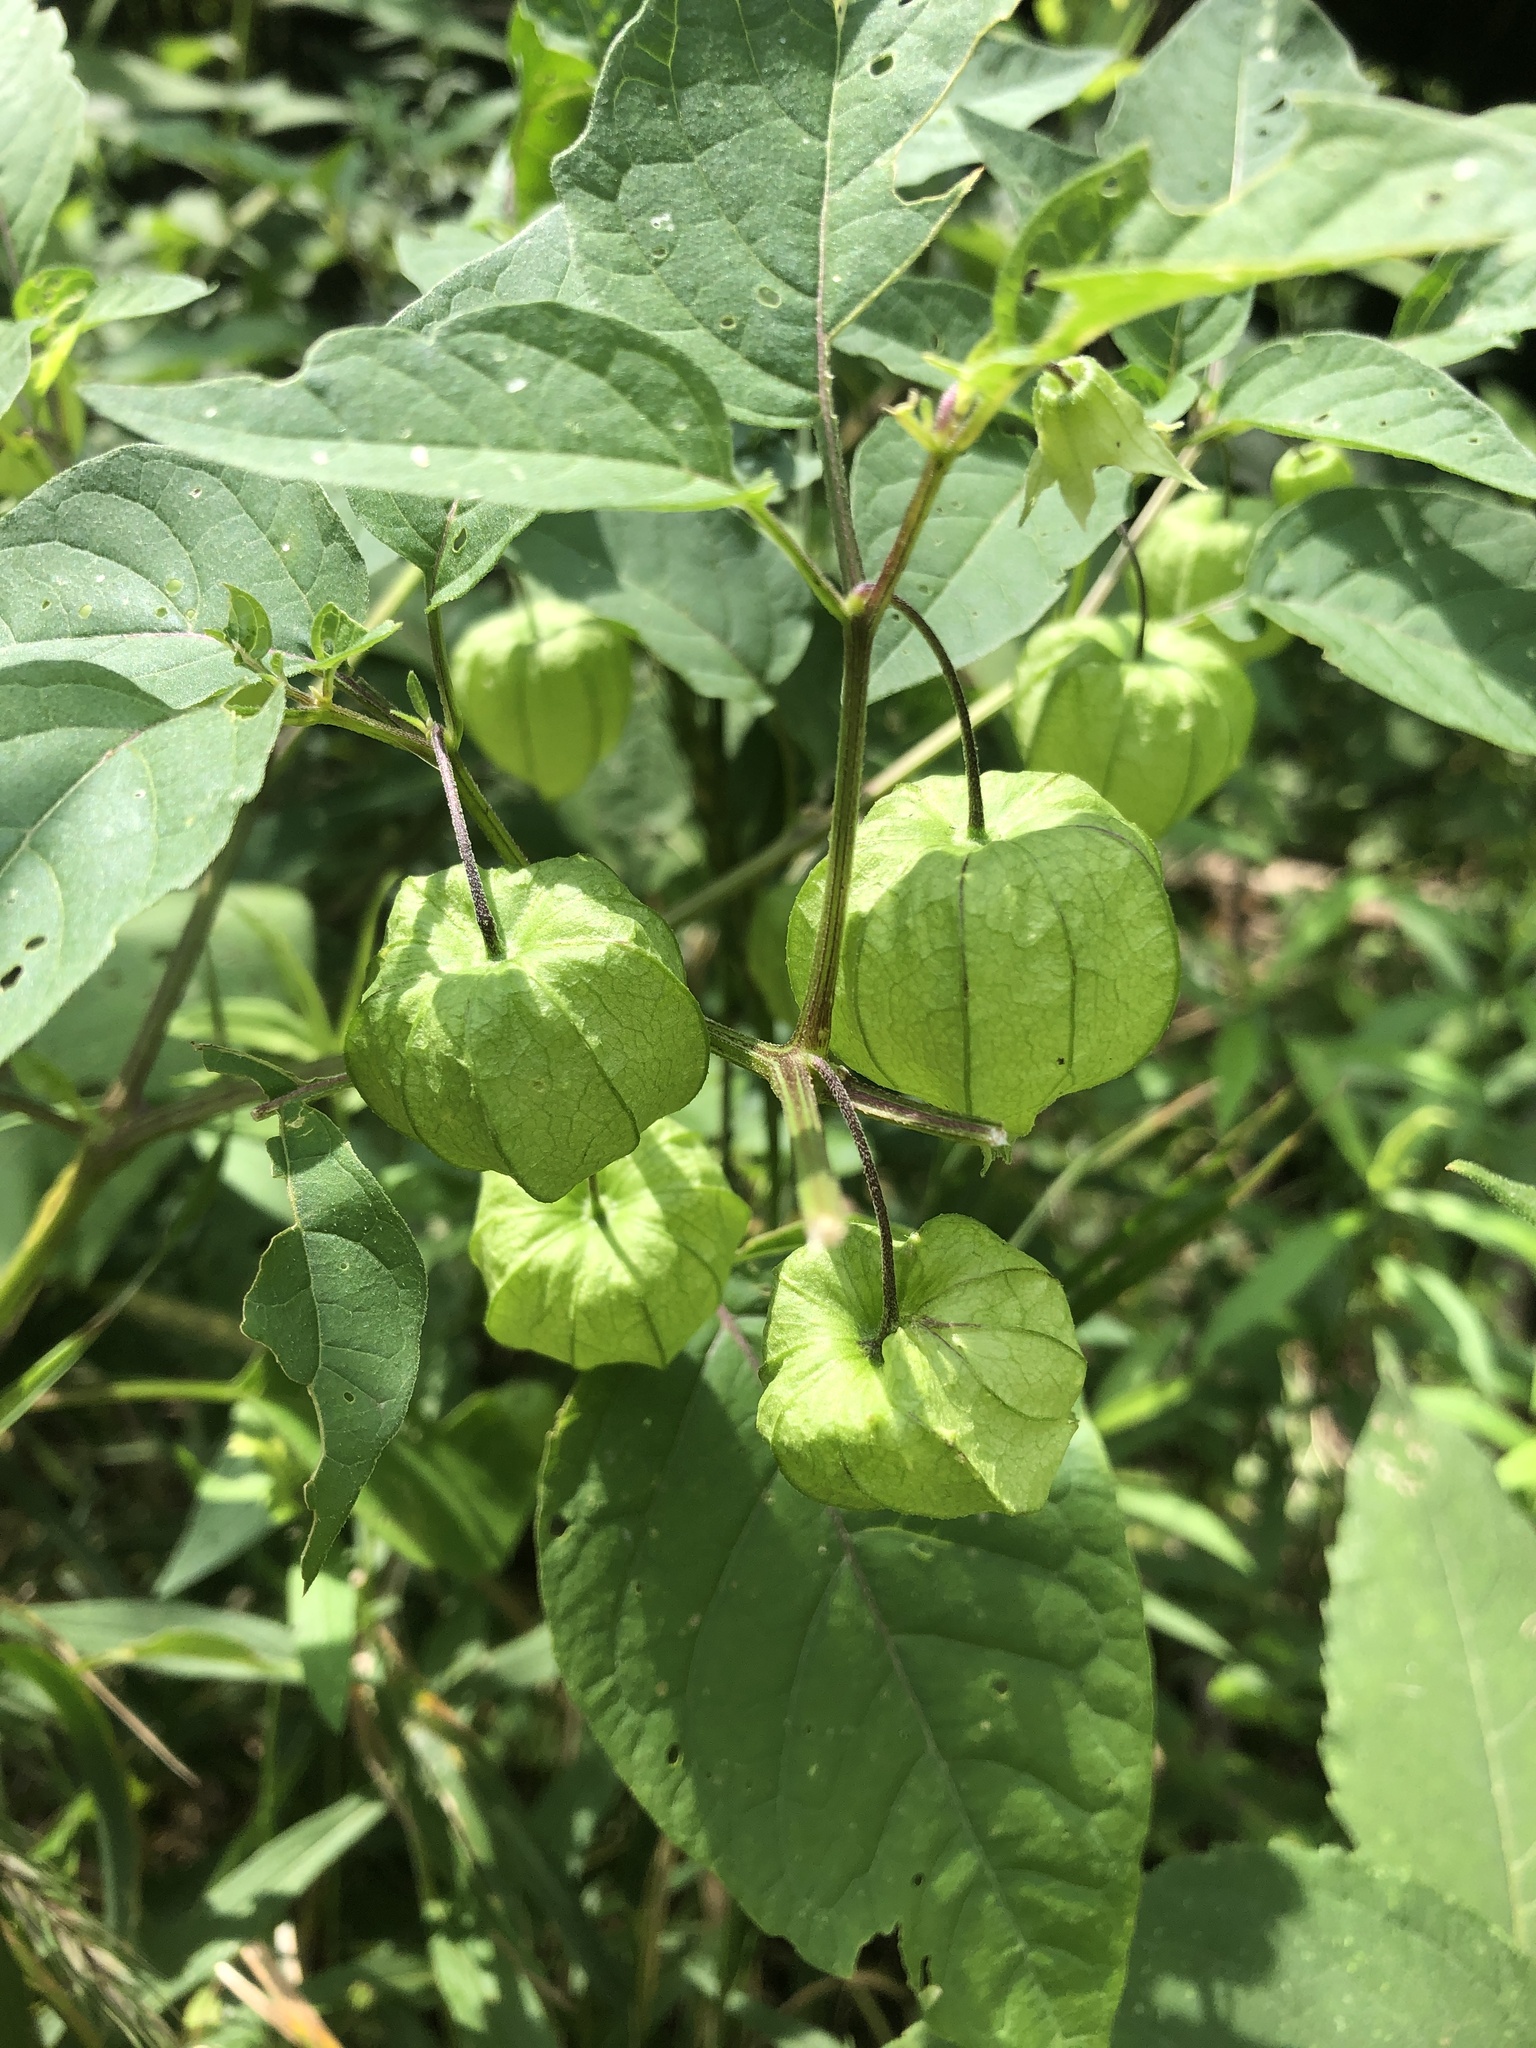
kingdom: Plantae
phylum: Tracheophyta
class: Magnoliopsida
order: Solanales
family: Solanaceae
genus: Physalis
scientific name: Physalis longifolia
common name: Common ground-cherry
